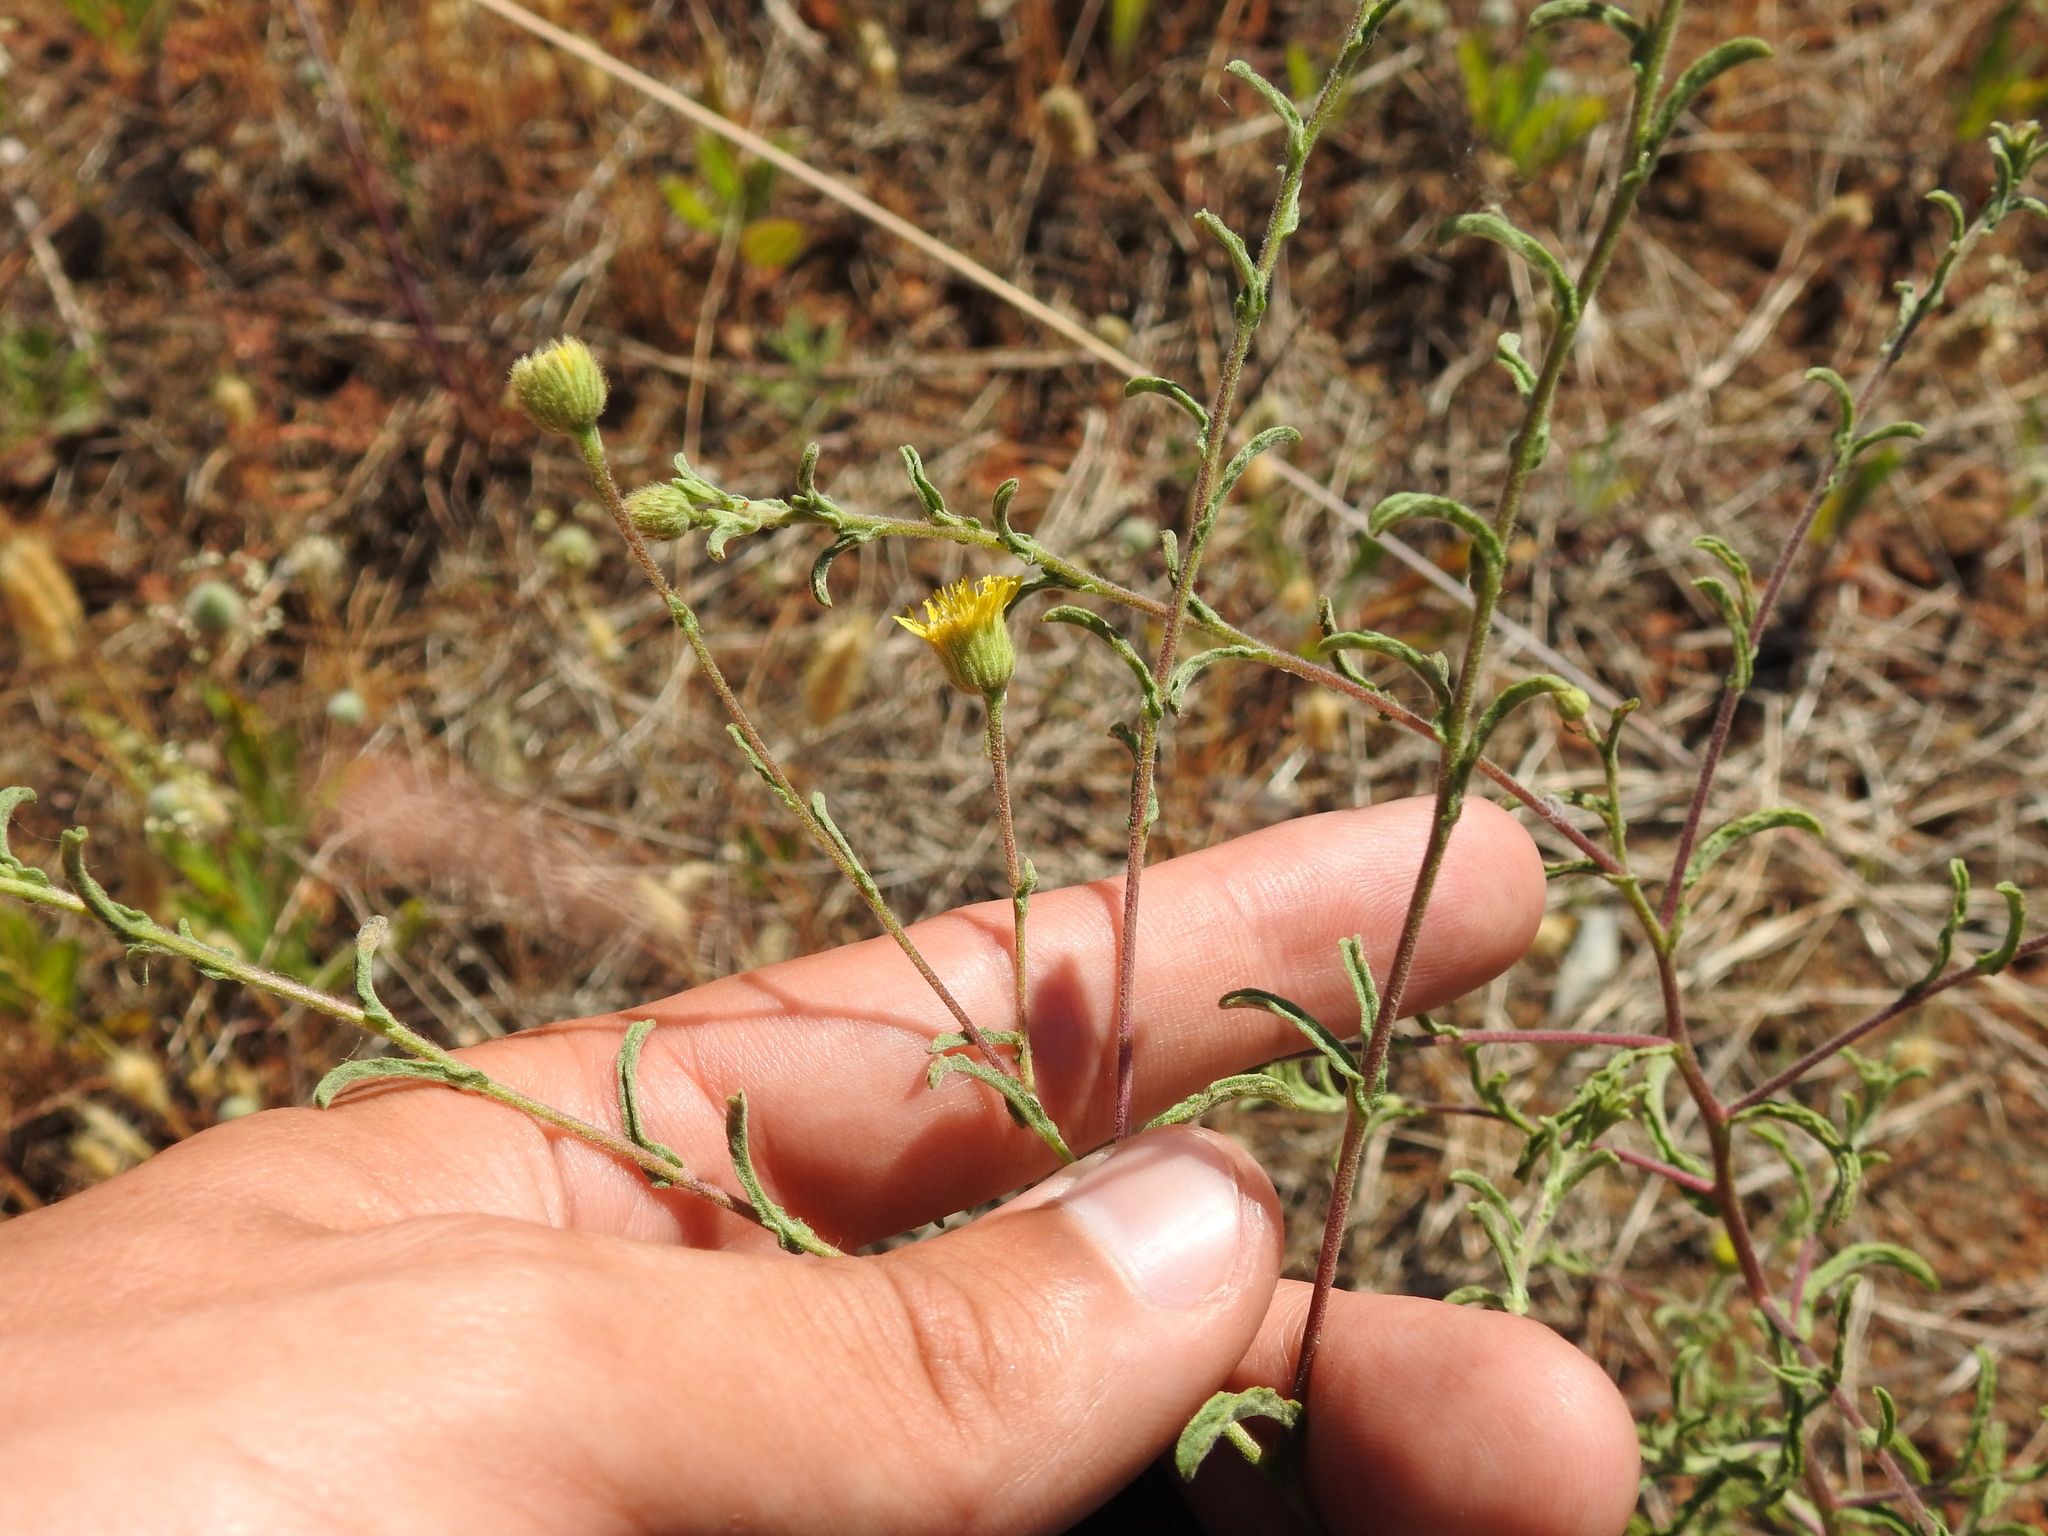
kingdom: Plantae
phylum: Tracheophyta
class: Magnoliopsida
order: Asterales
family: Asteraceae
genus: Pulicaria
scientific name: Pulicaria paludosa
